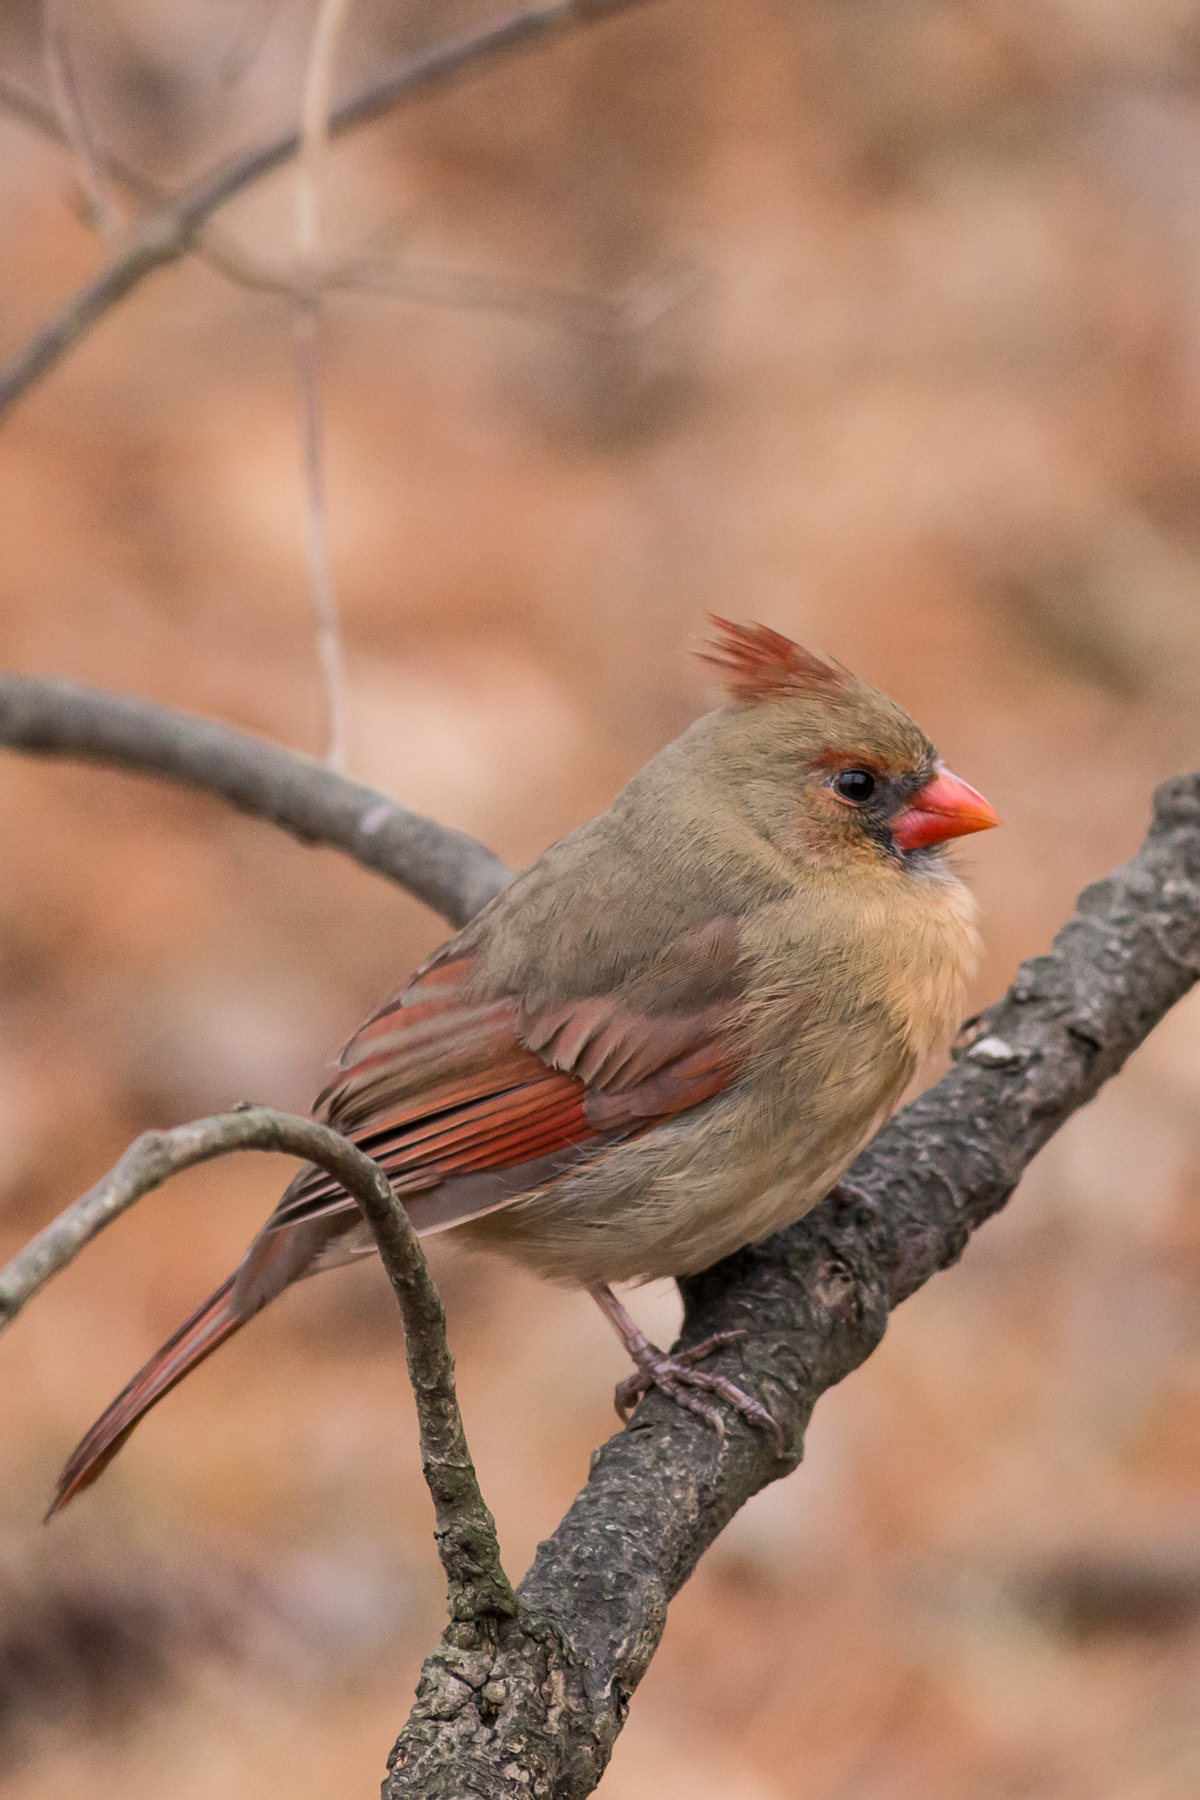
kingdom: Animalia
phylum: Chordata
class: Aves
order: Passeriformes
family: Cardinalidae
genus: Cardinalis
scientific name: Cardinalis cardinalis
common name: Northern cardinal
